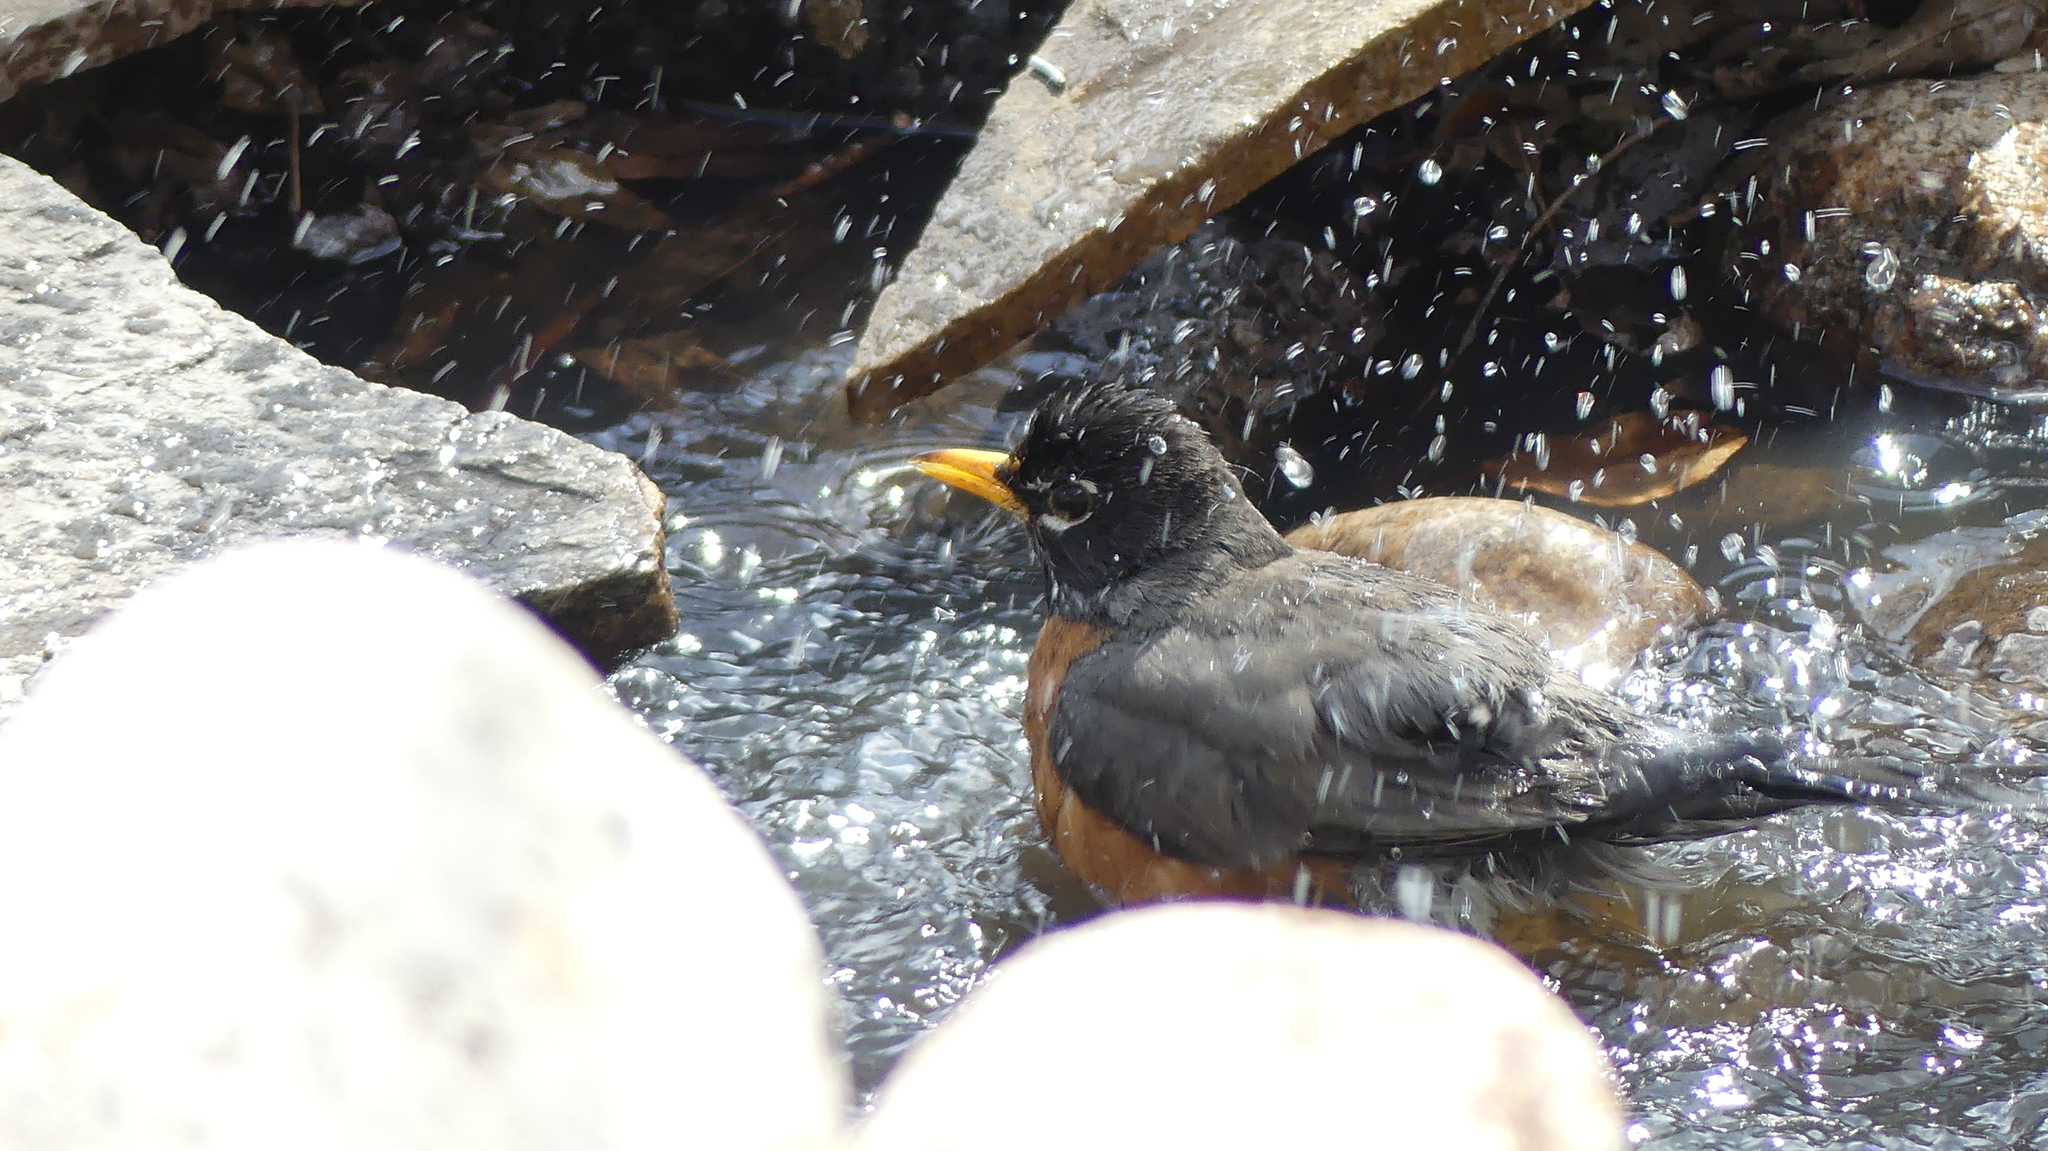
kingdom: Animalia
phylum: Chordata
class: Aves
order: Passeriformes
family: Turdidae
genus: Turdus
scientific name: Turdus migratorius
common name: American robin
